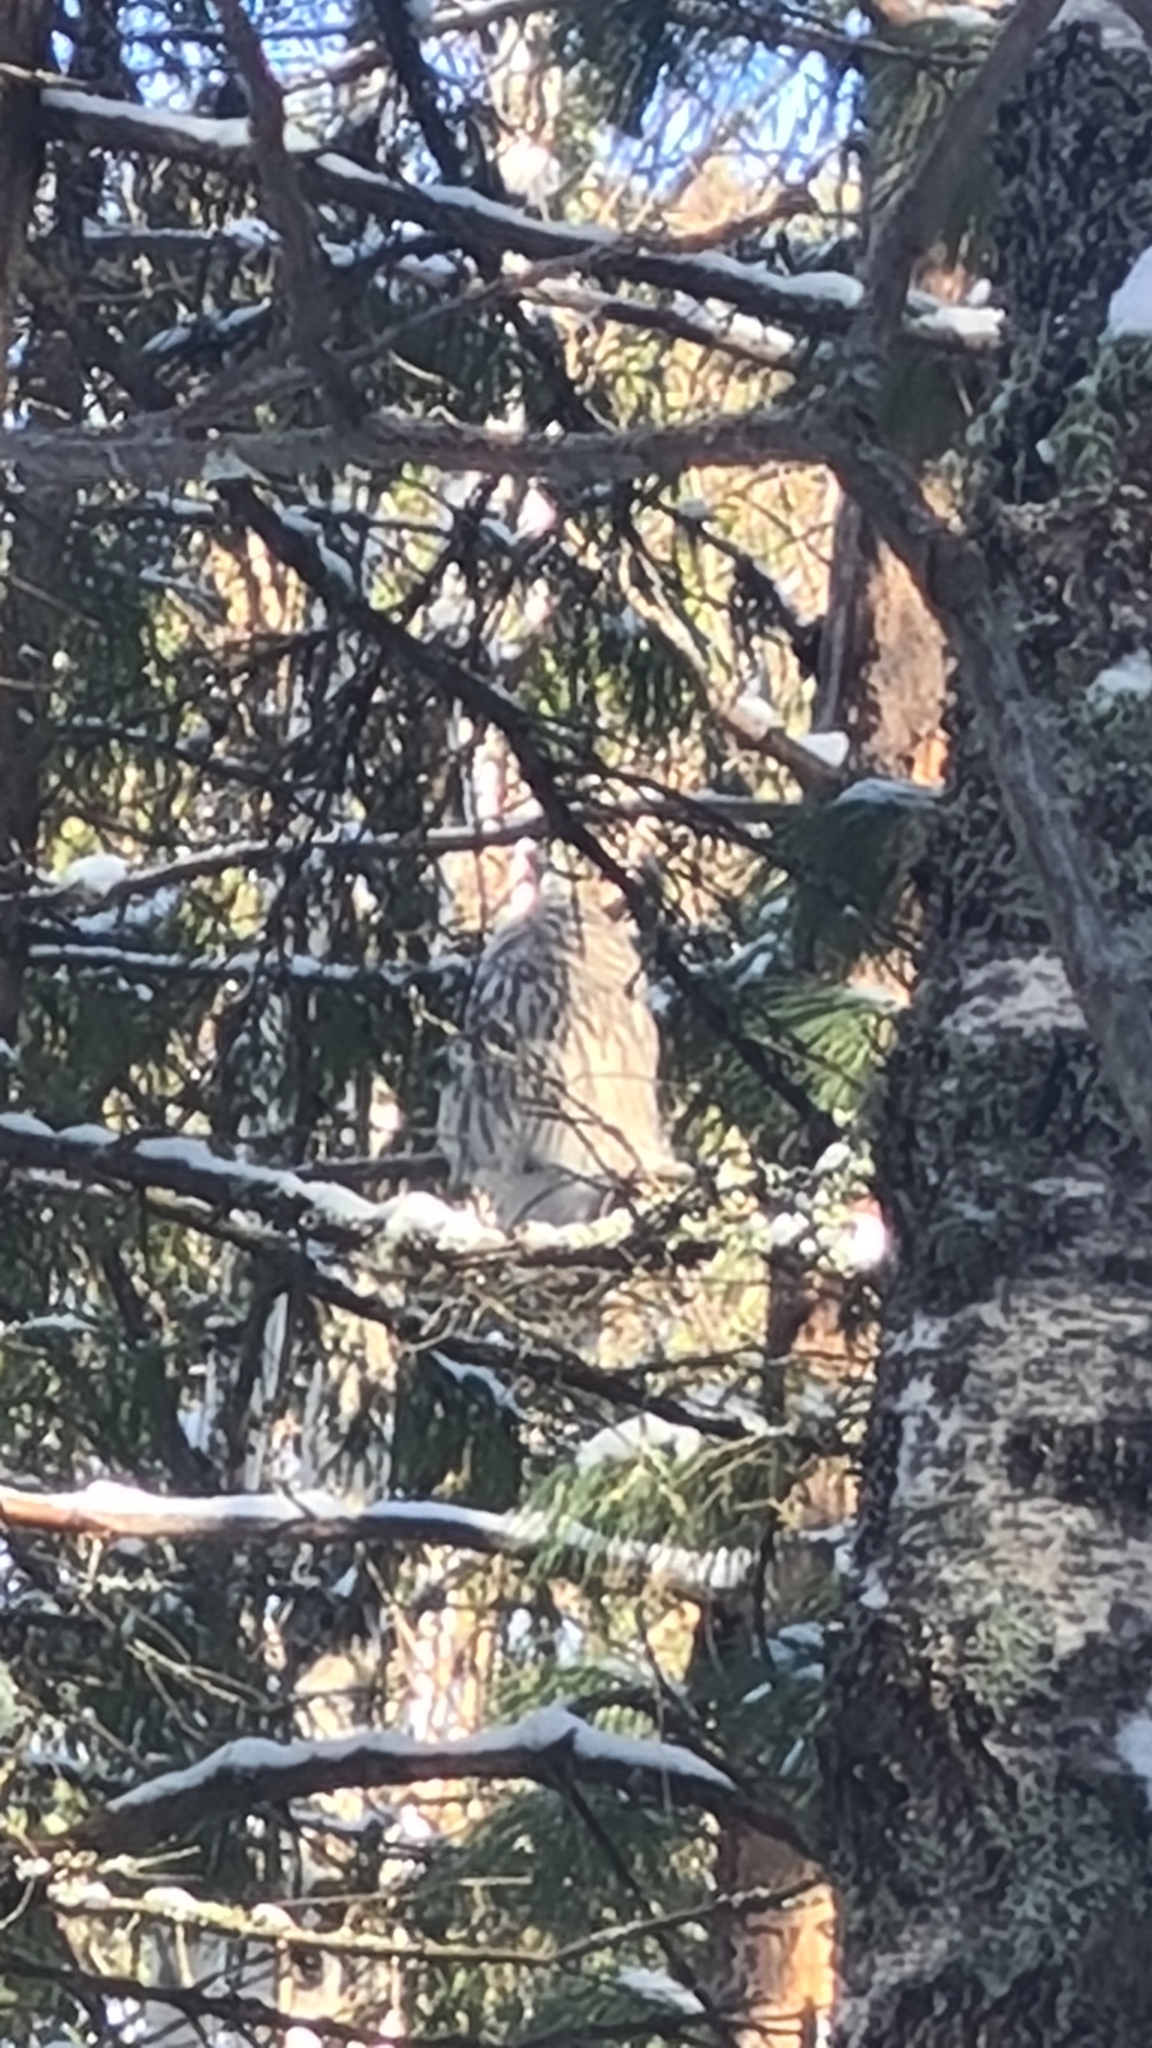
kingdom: Animalia
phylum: Chordata
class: Aves
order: Strigiformes
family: Strigidae
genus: Strix
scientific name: Strix uralensis
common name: Ural owl
